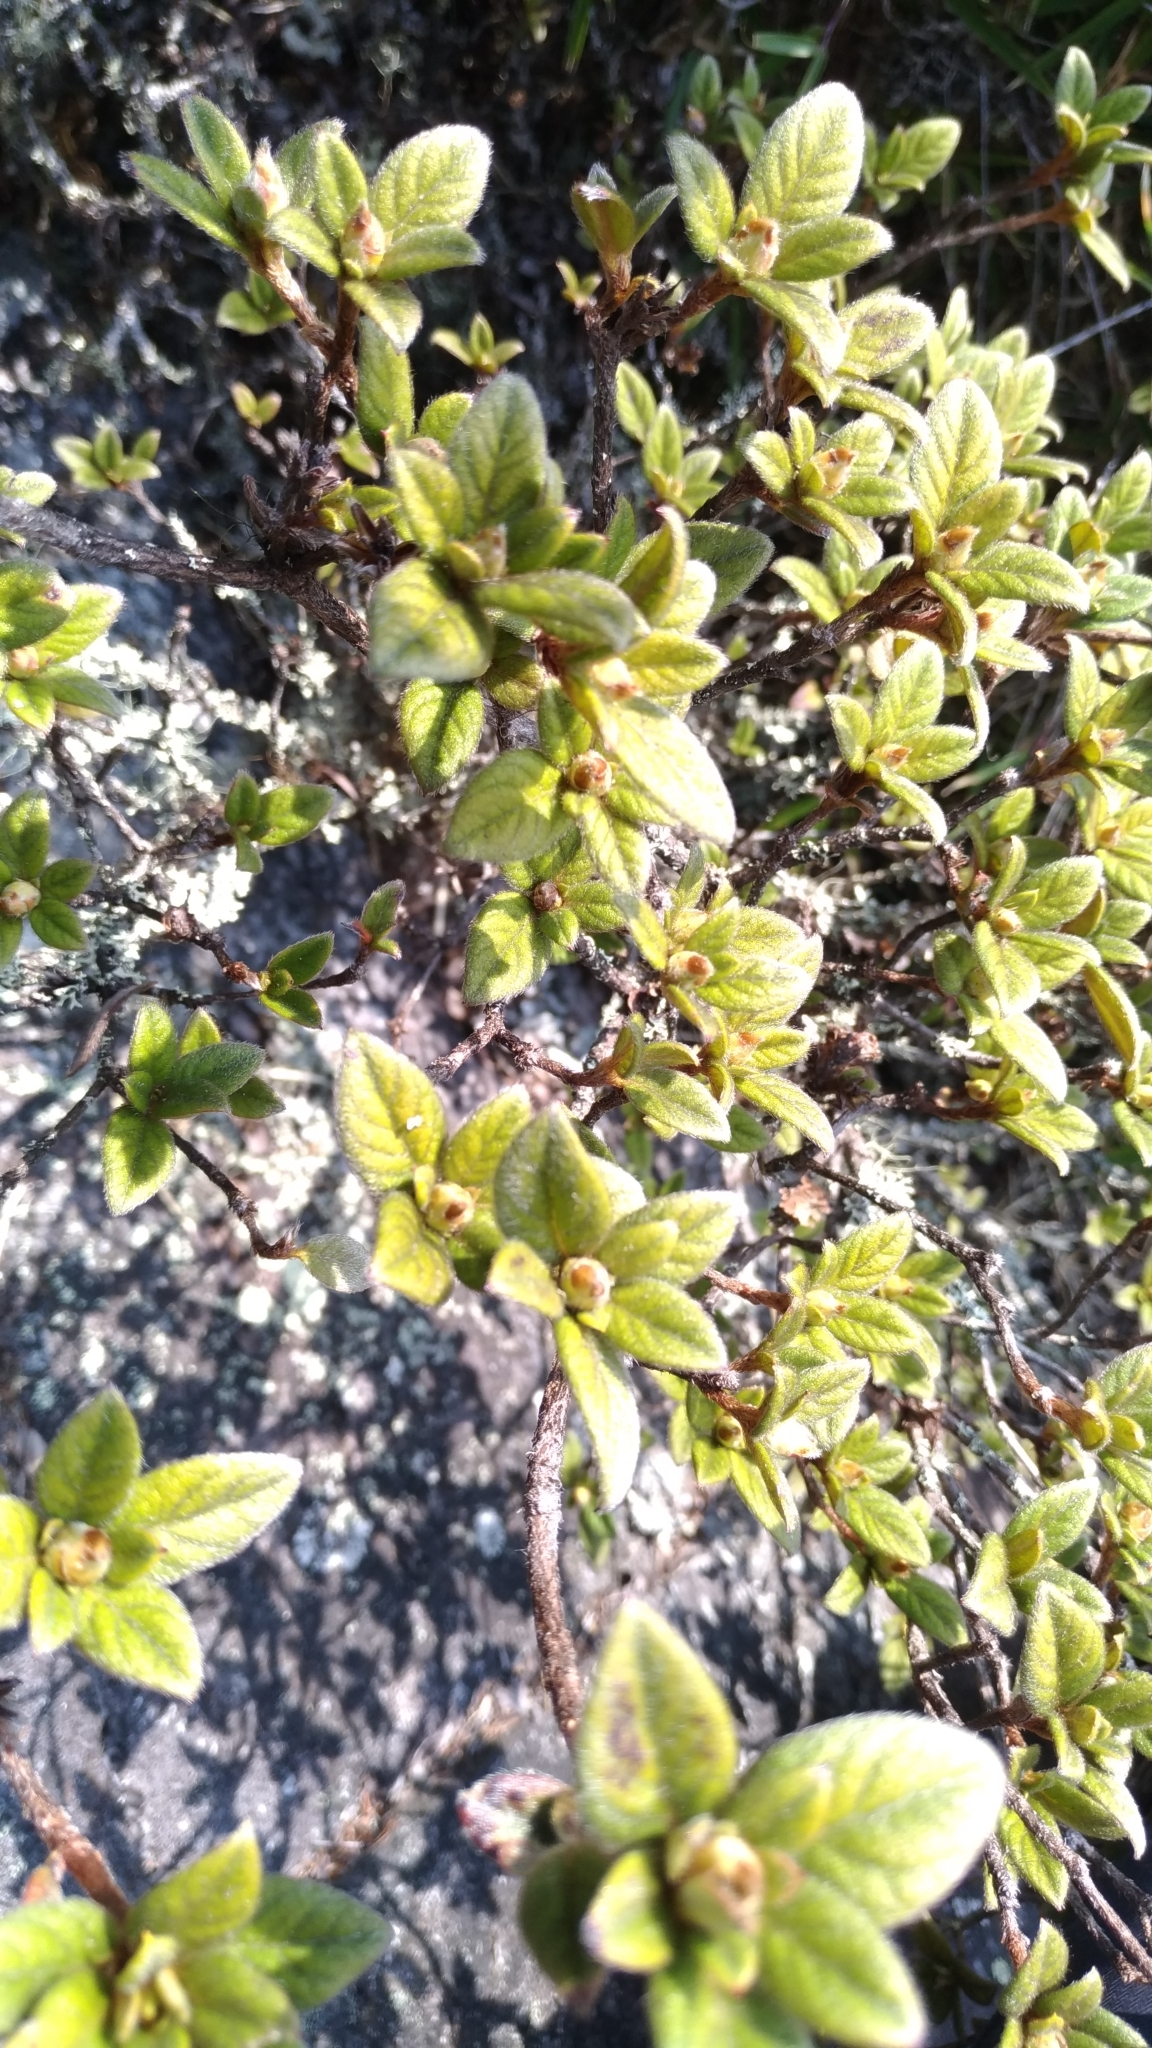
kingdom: Plantae
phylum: Tracheophyta
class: Magnoliopsida
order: Ericales
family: Ericaceae
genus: Rhododendron
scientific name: Rhododendron taiwanalpinum
